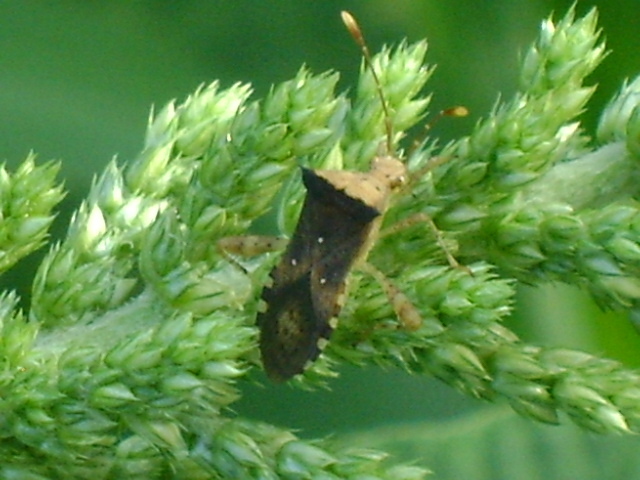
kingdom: Animalia
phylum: Arthropoda
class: Insecta
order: Hemiptera
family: Coreidae
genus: Zicca
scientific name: Zicca taeniola
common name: Leaf-footed bug
